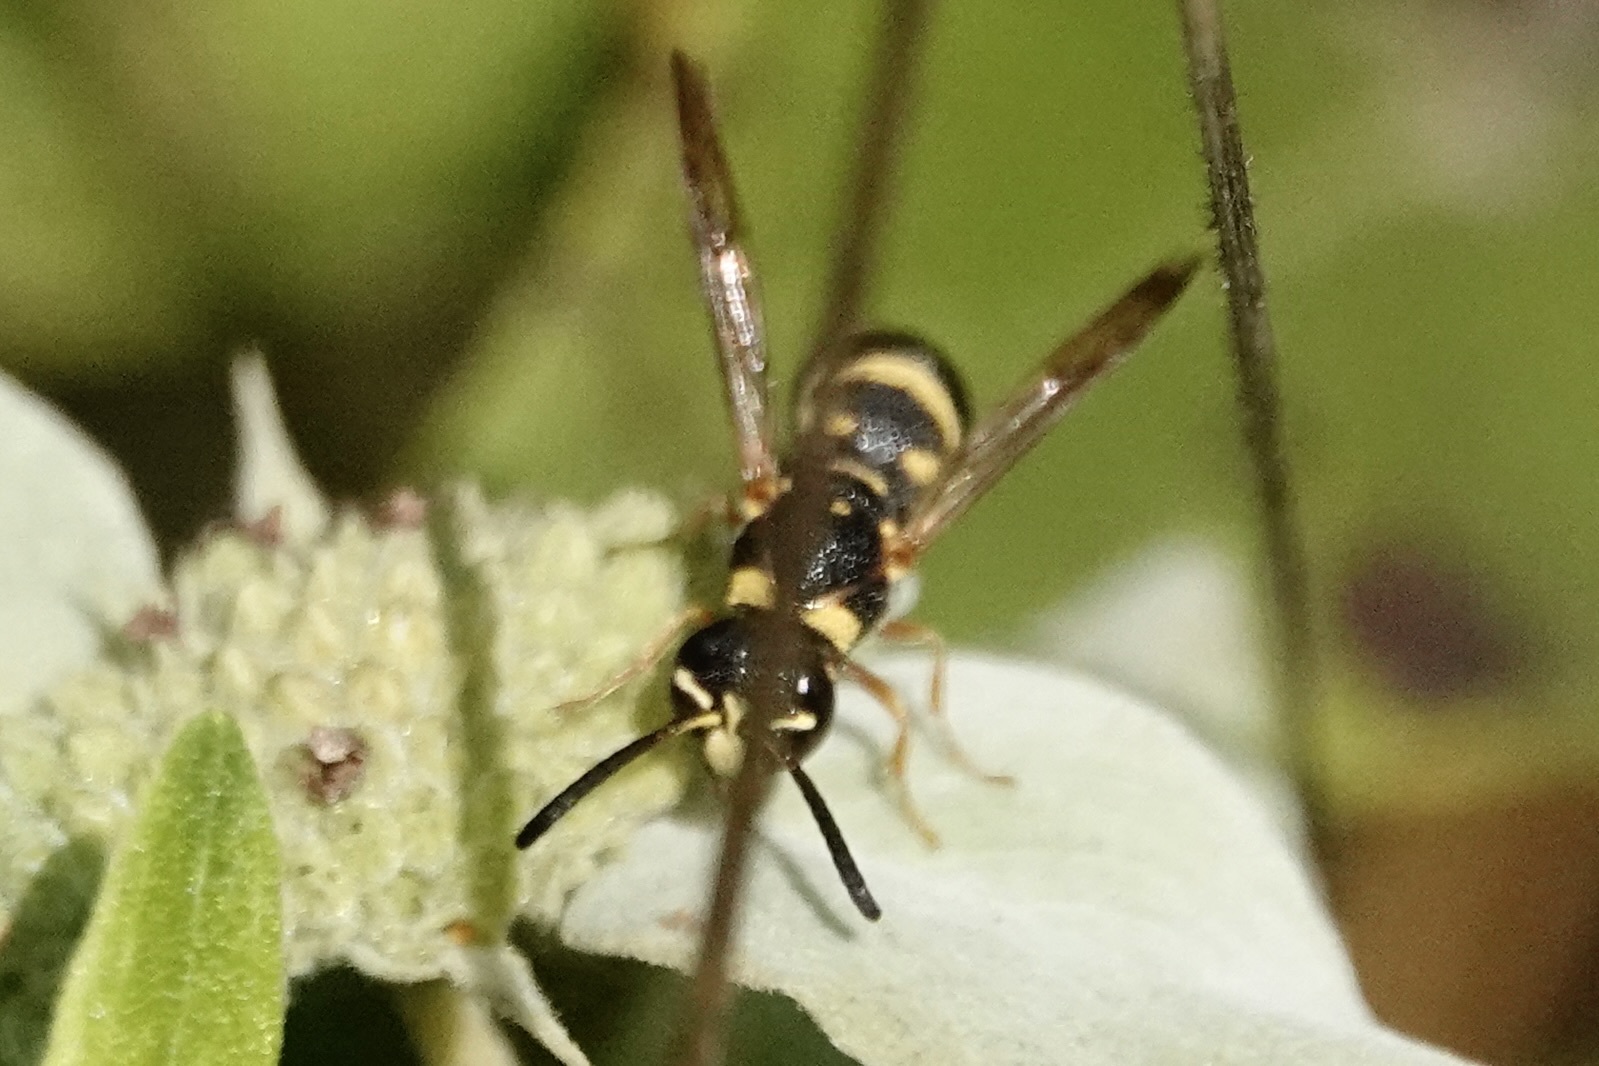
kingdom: Animalia
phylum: Arthropoda
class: Insecta
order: Hymenoptera
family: Eumenidae
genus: Parancistrocerus
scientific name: Parancistrocerus fulvipes
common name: Potter wasp
